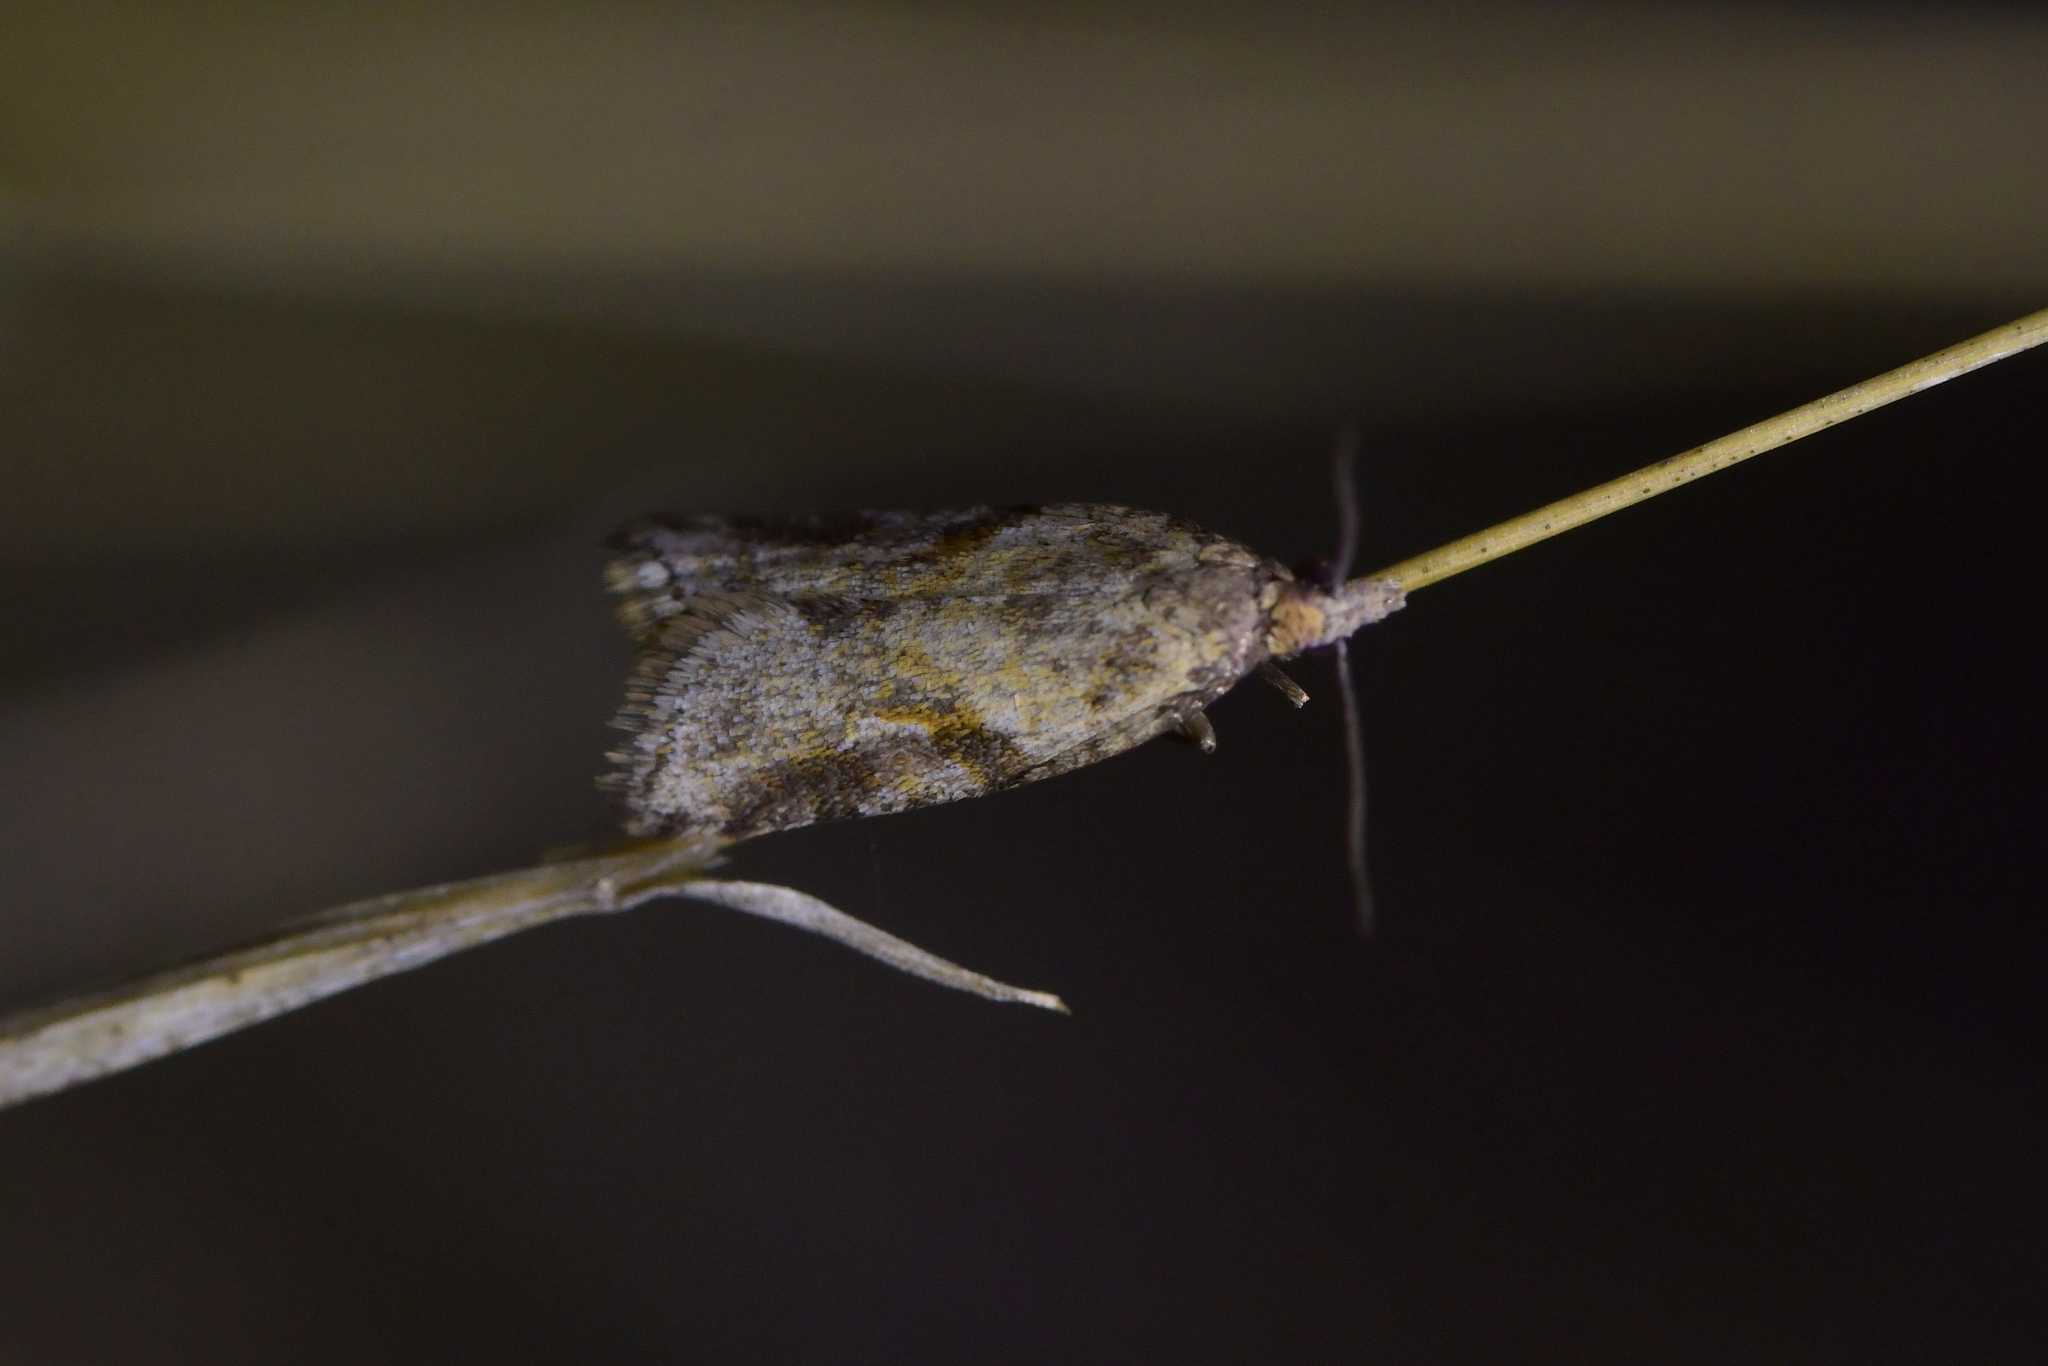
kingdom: Animalia
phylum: Arthropoda
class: Insecta
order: Lepidoptera
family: Tortricidae
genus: Capua
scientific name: Capua semiferana
